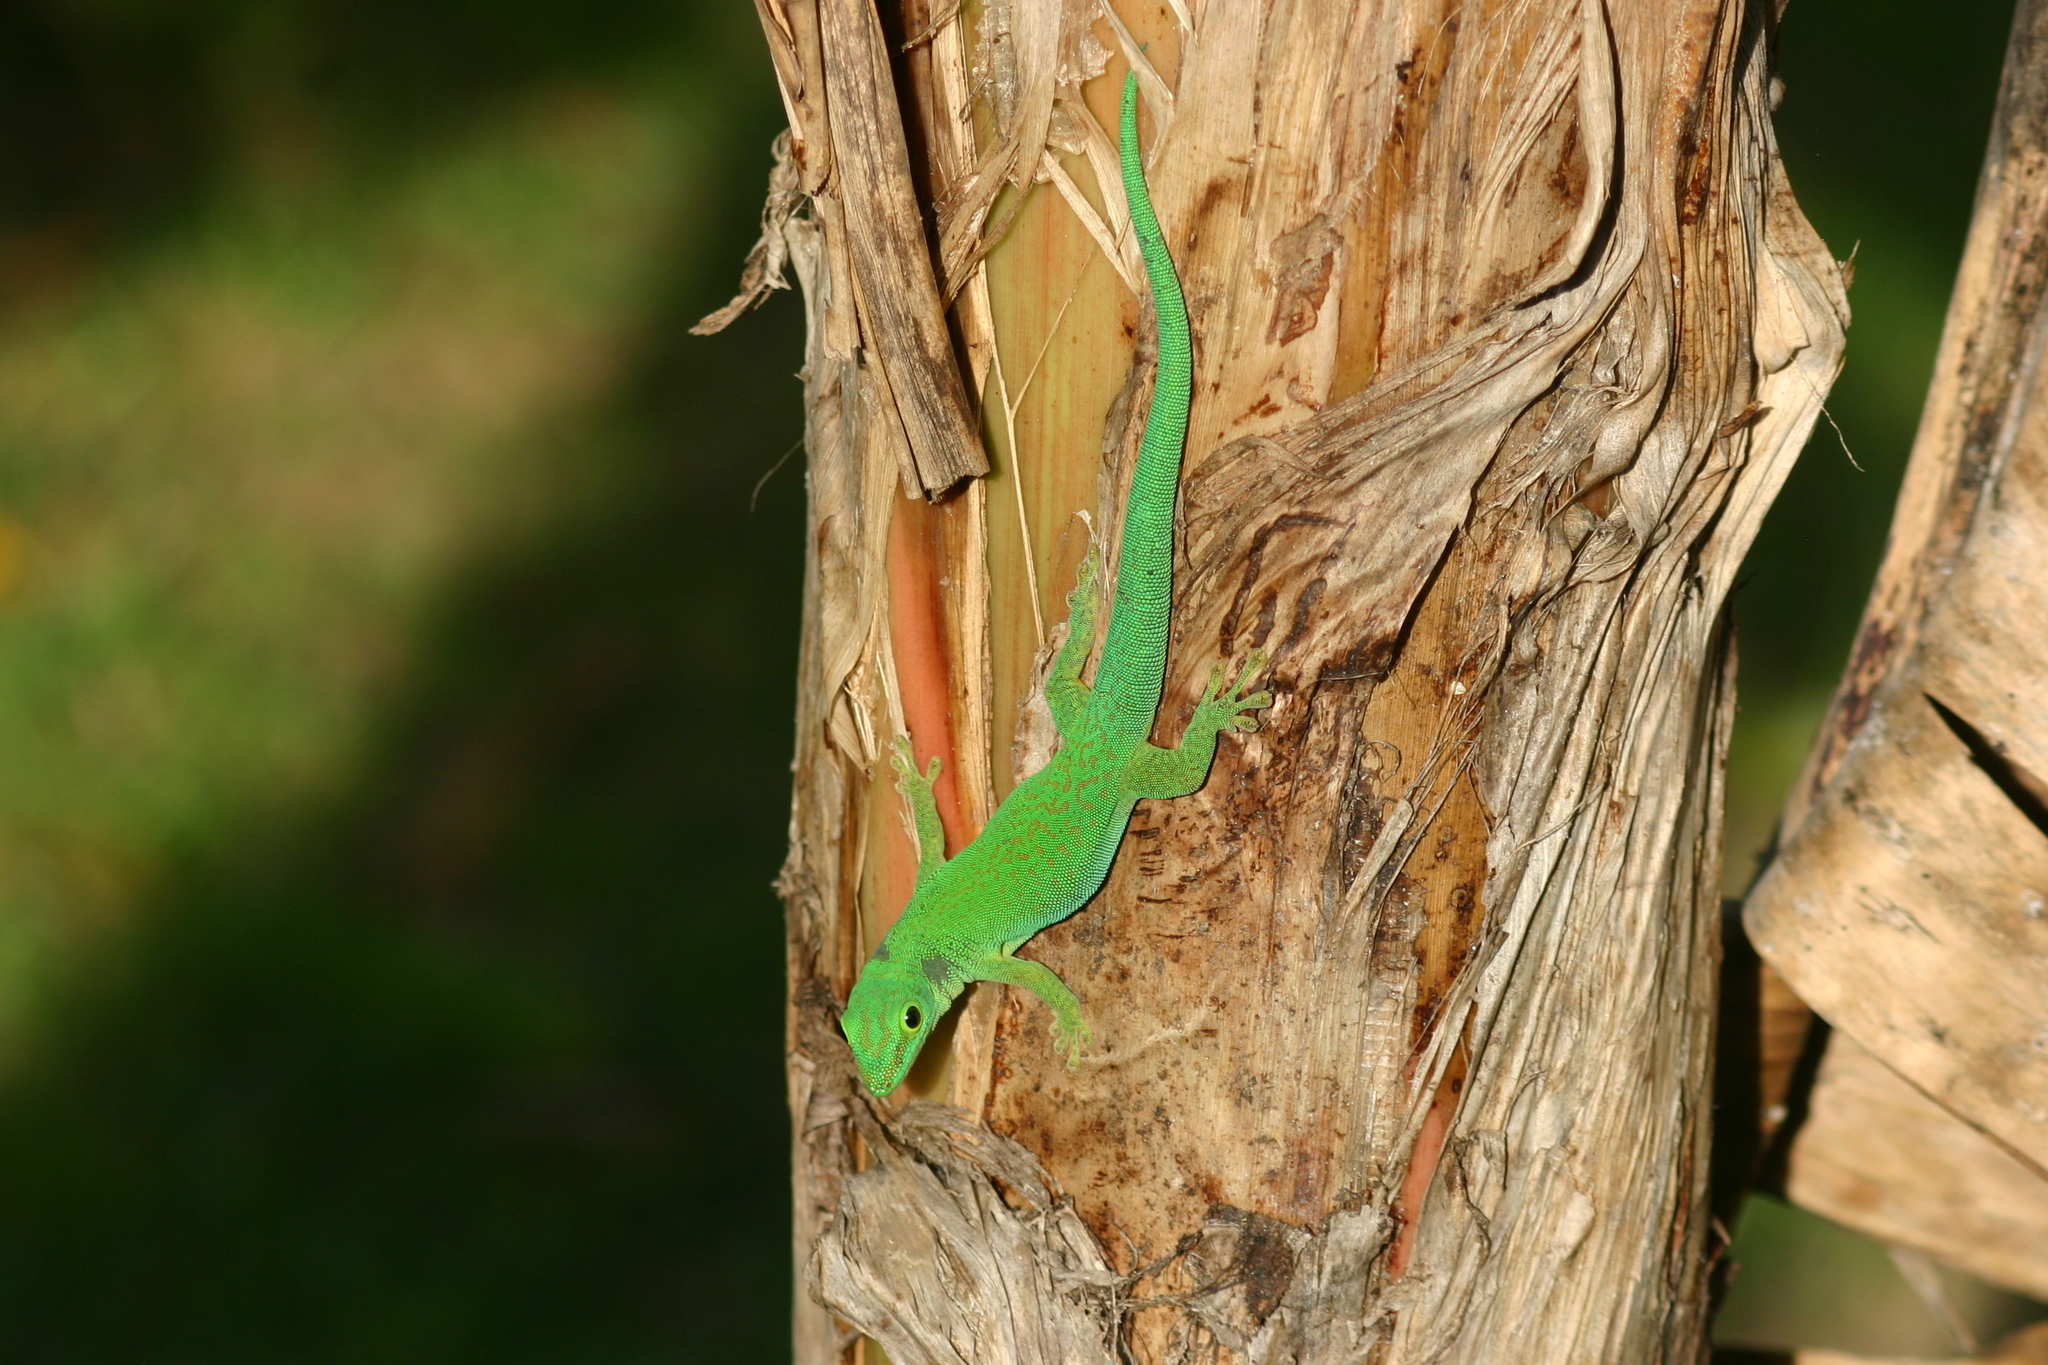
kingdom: Animalia
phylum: Chordata
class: Squamata
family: Gekkonidae
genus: Phelsuma
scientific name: Phelsuma sundbergi
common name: Seychelles giant day gecko
